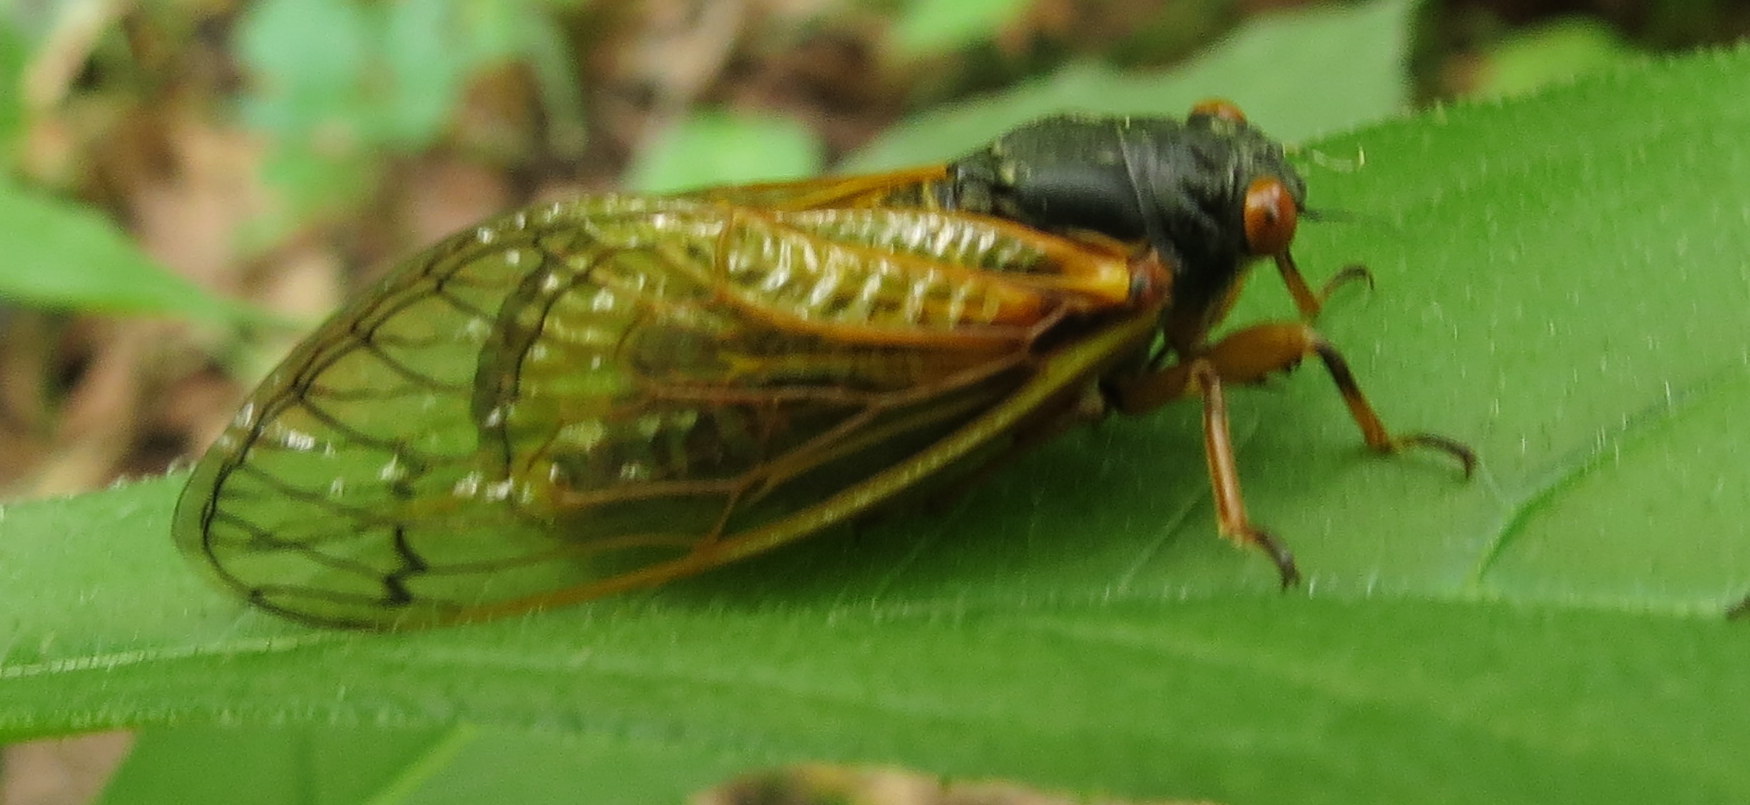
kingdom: Animalia
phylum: Arthropoda
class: Insecta
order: Hemiptera
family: Cicadidae
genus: Magicicada
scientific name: Magicicada
